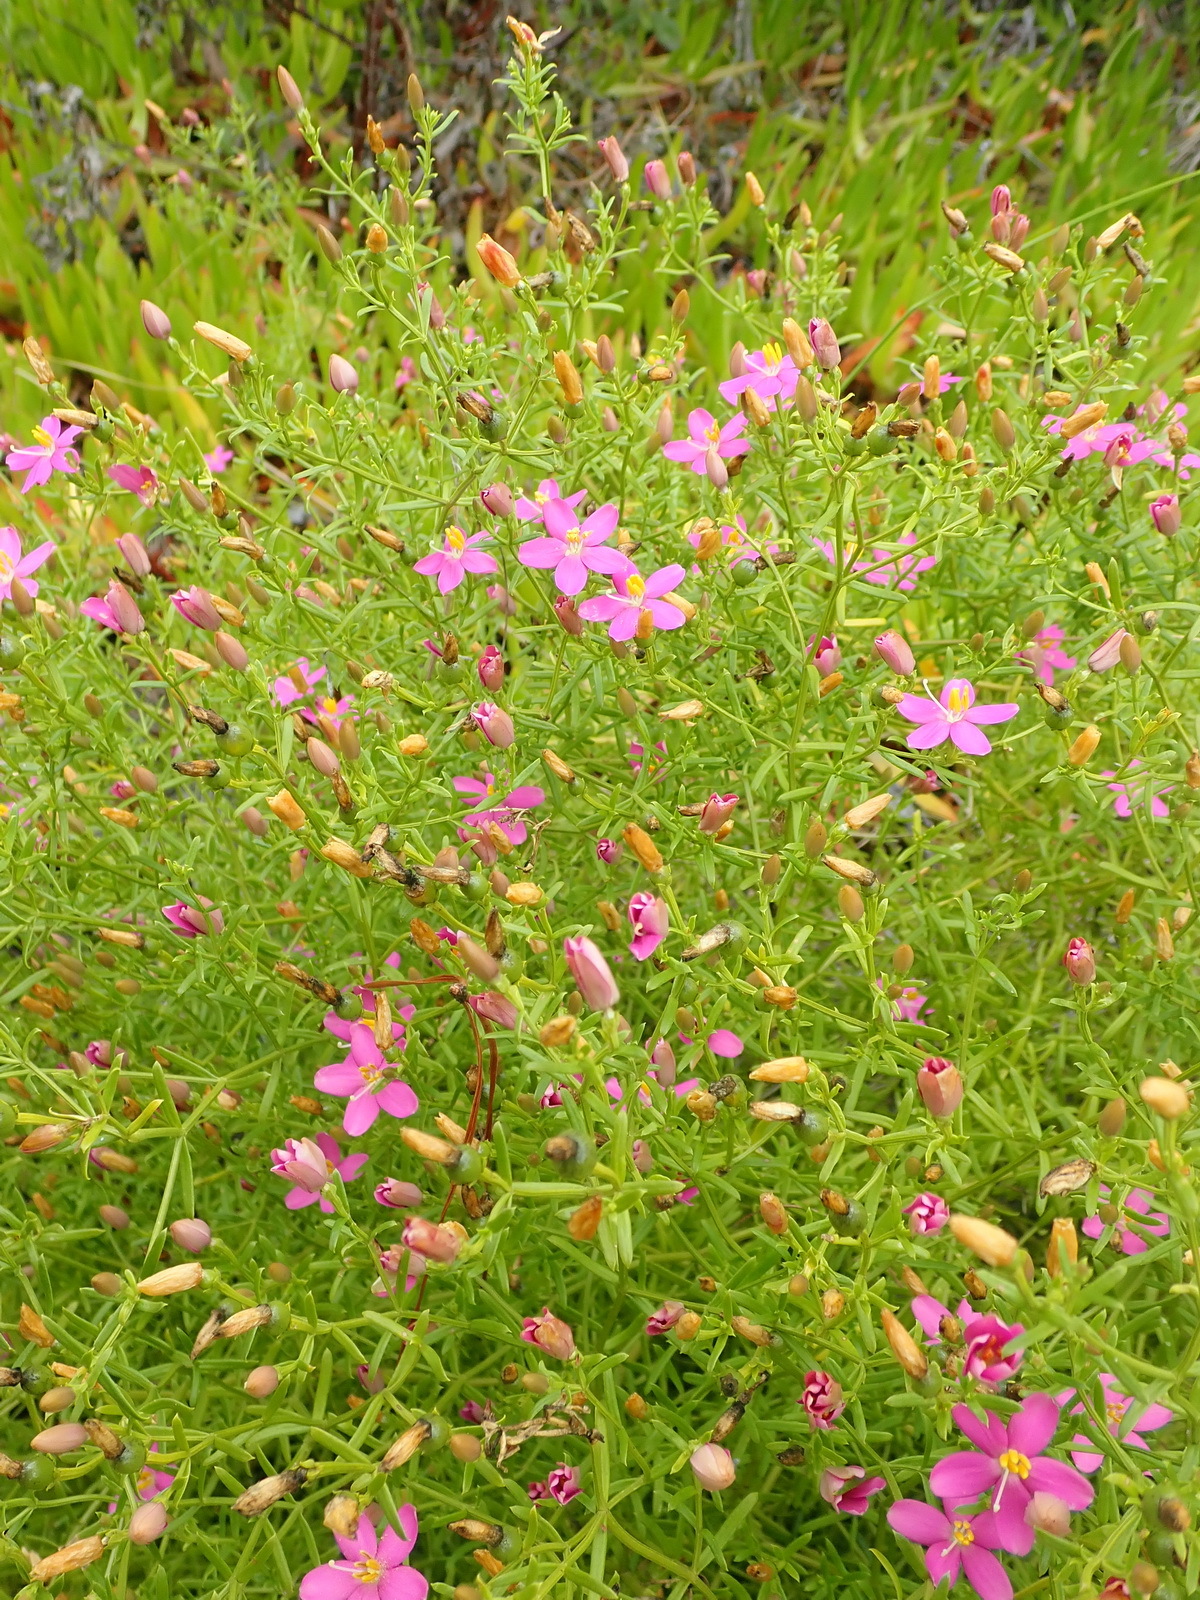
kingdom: Plantae
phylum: Tracheophyta
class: Magnoliopsida
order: Gentianales
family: Gentianaceae
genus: Chironia
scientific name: Chironia baccifera
